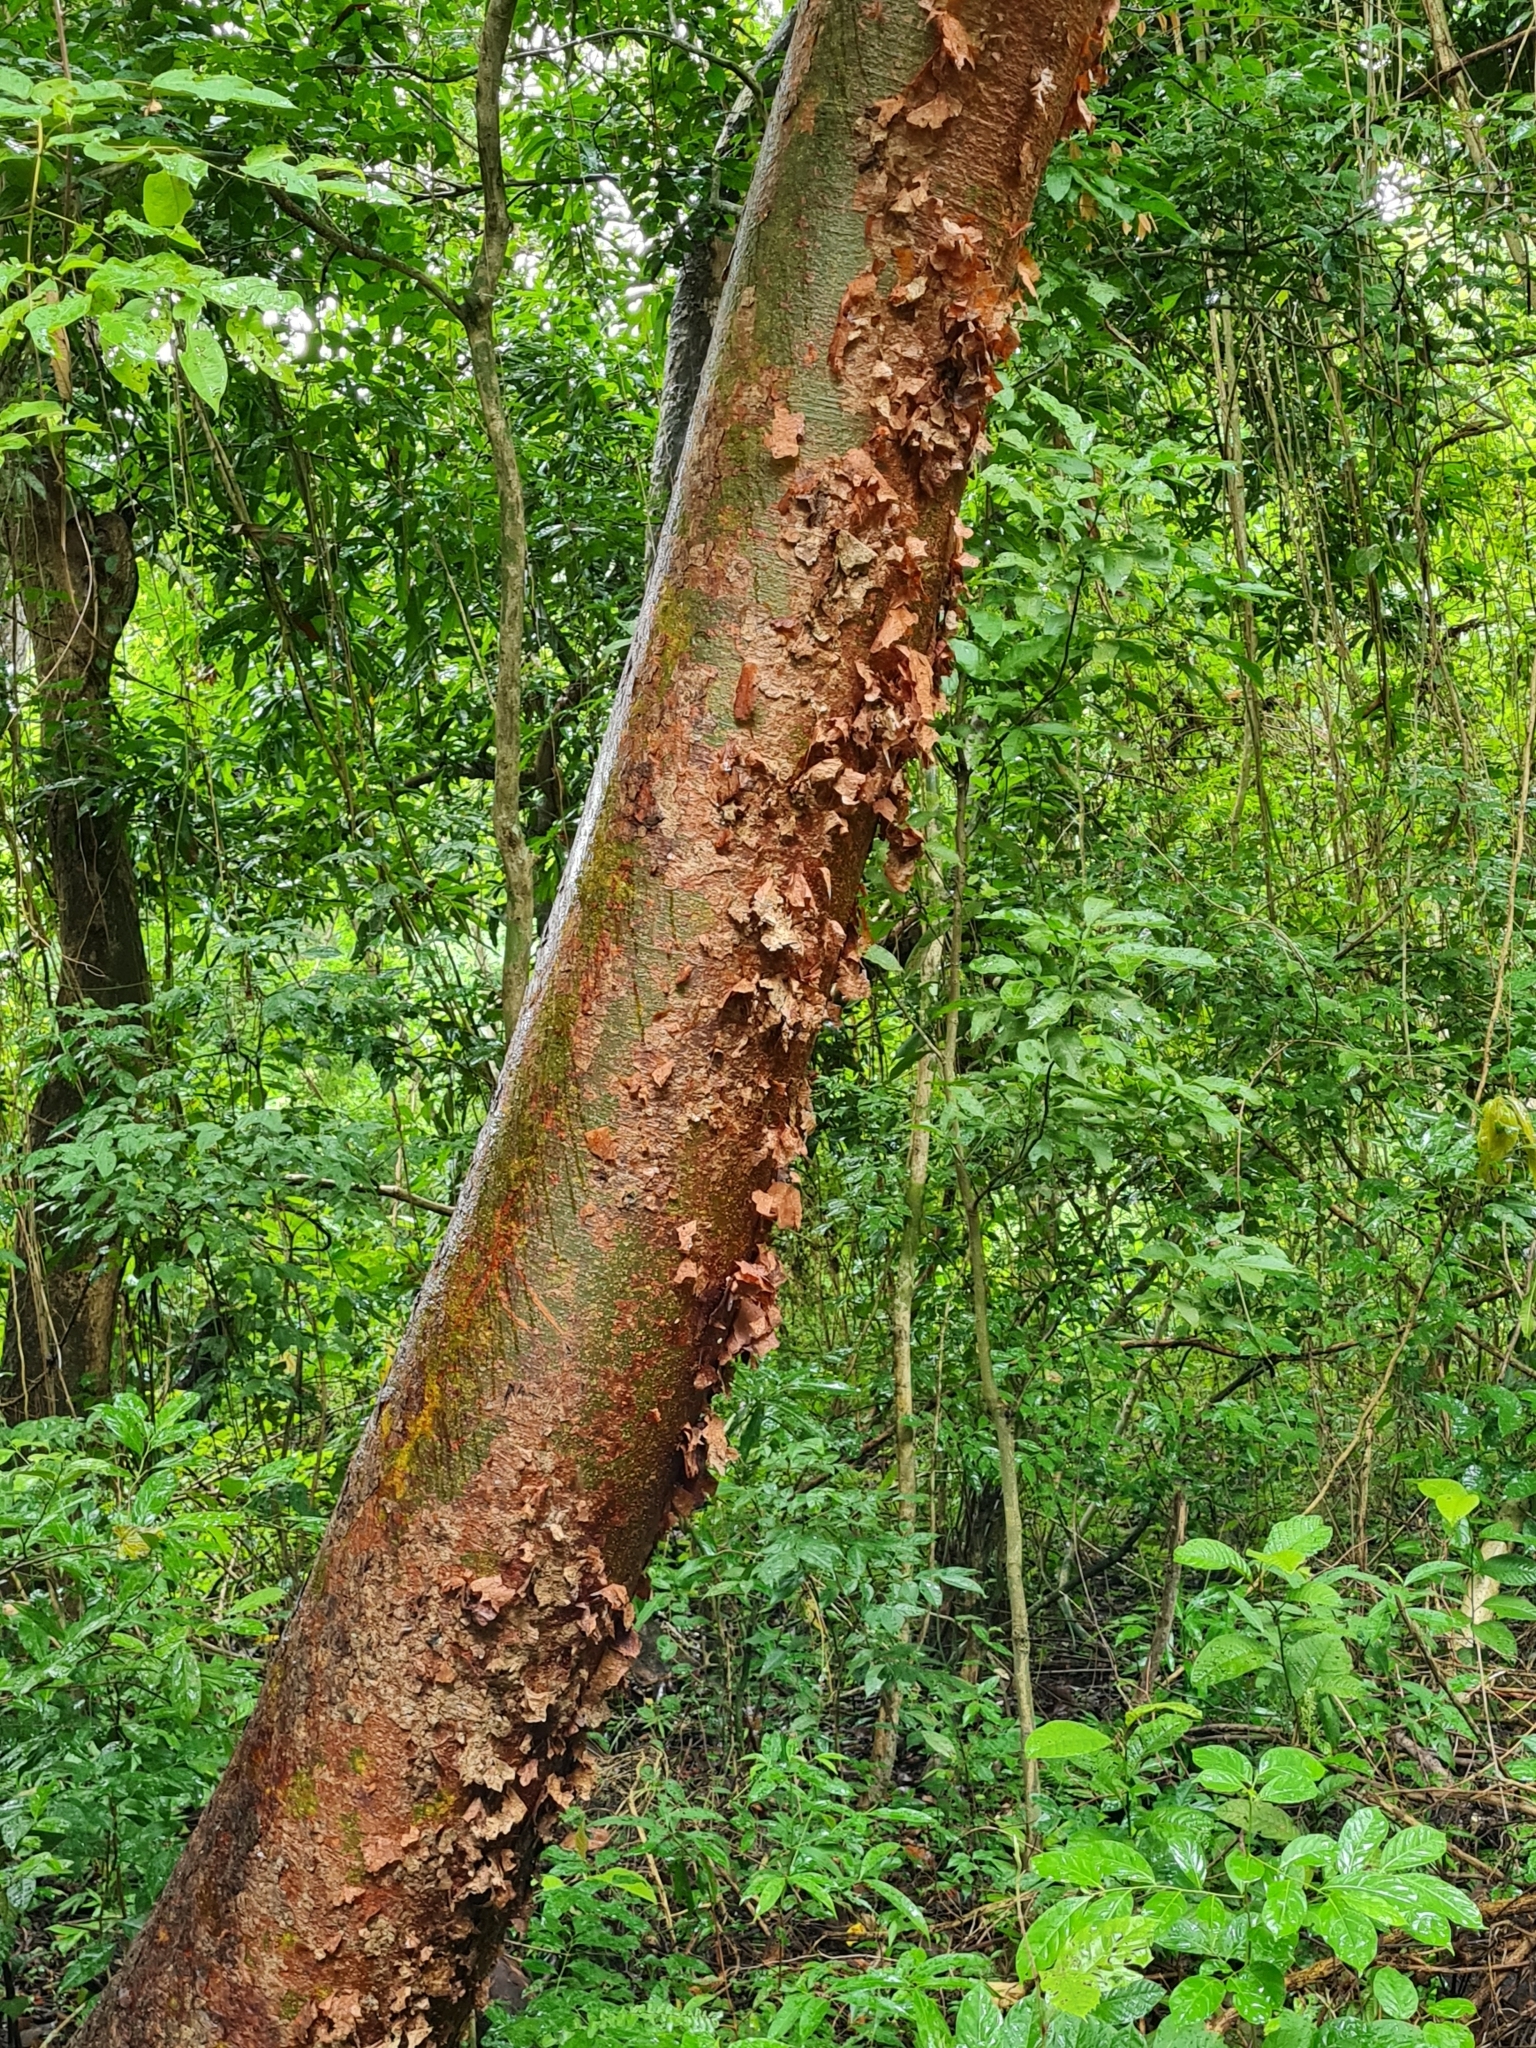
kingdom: Plantae
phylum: Tracheophyta
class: Magnoliopsida
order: Sapindales
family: Burseraceae
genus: Bursera
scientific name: Bursera simaruba
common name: Turpentine tree
